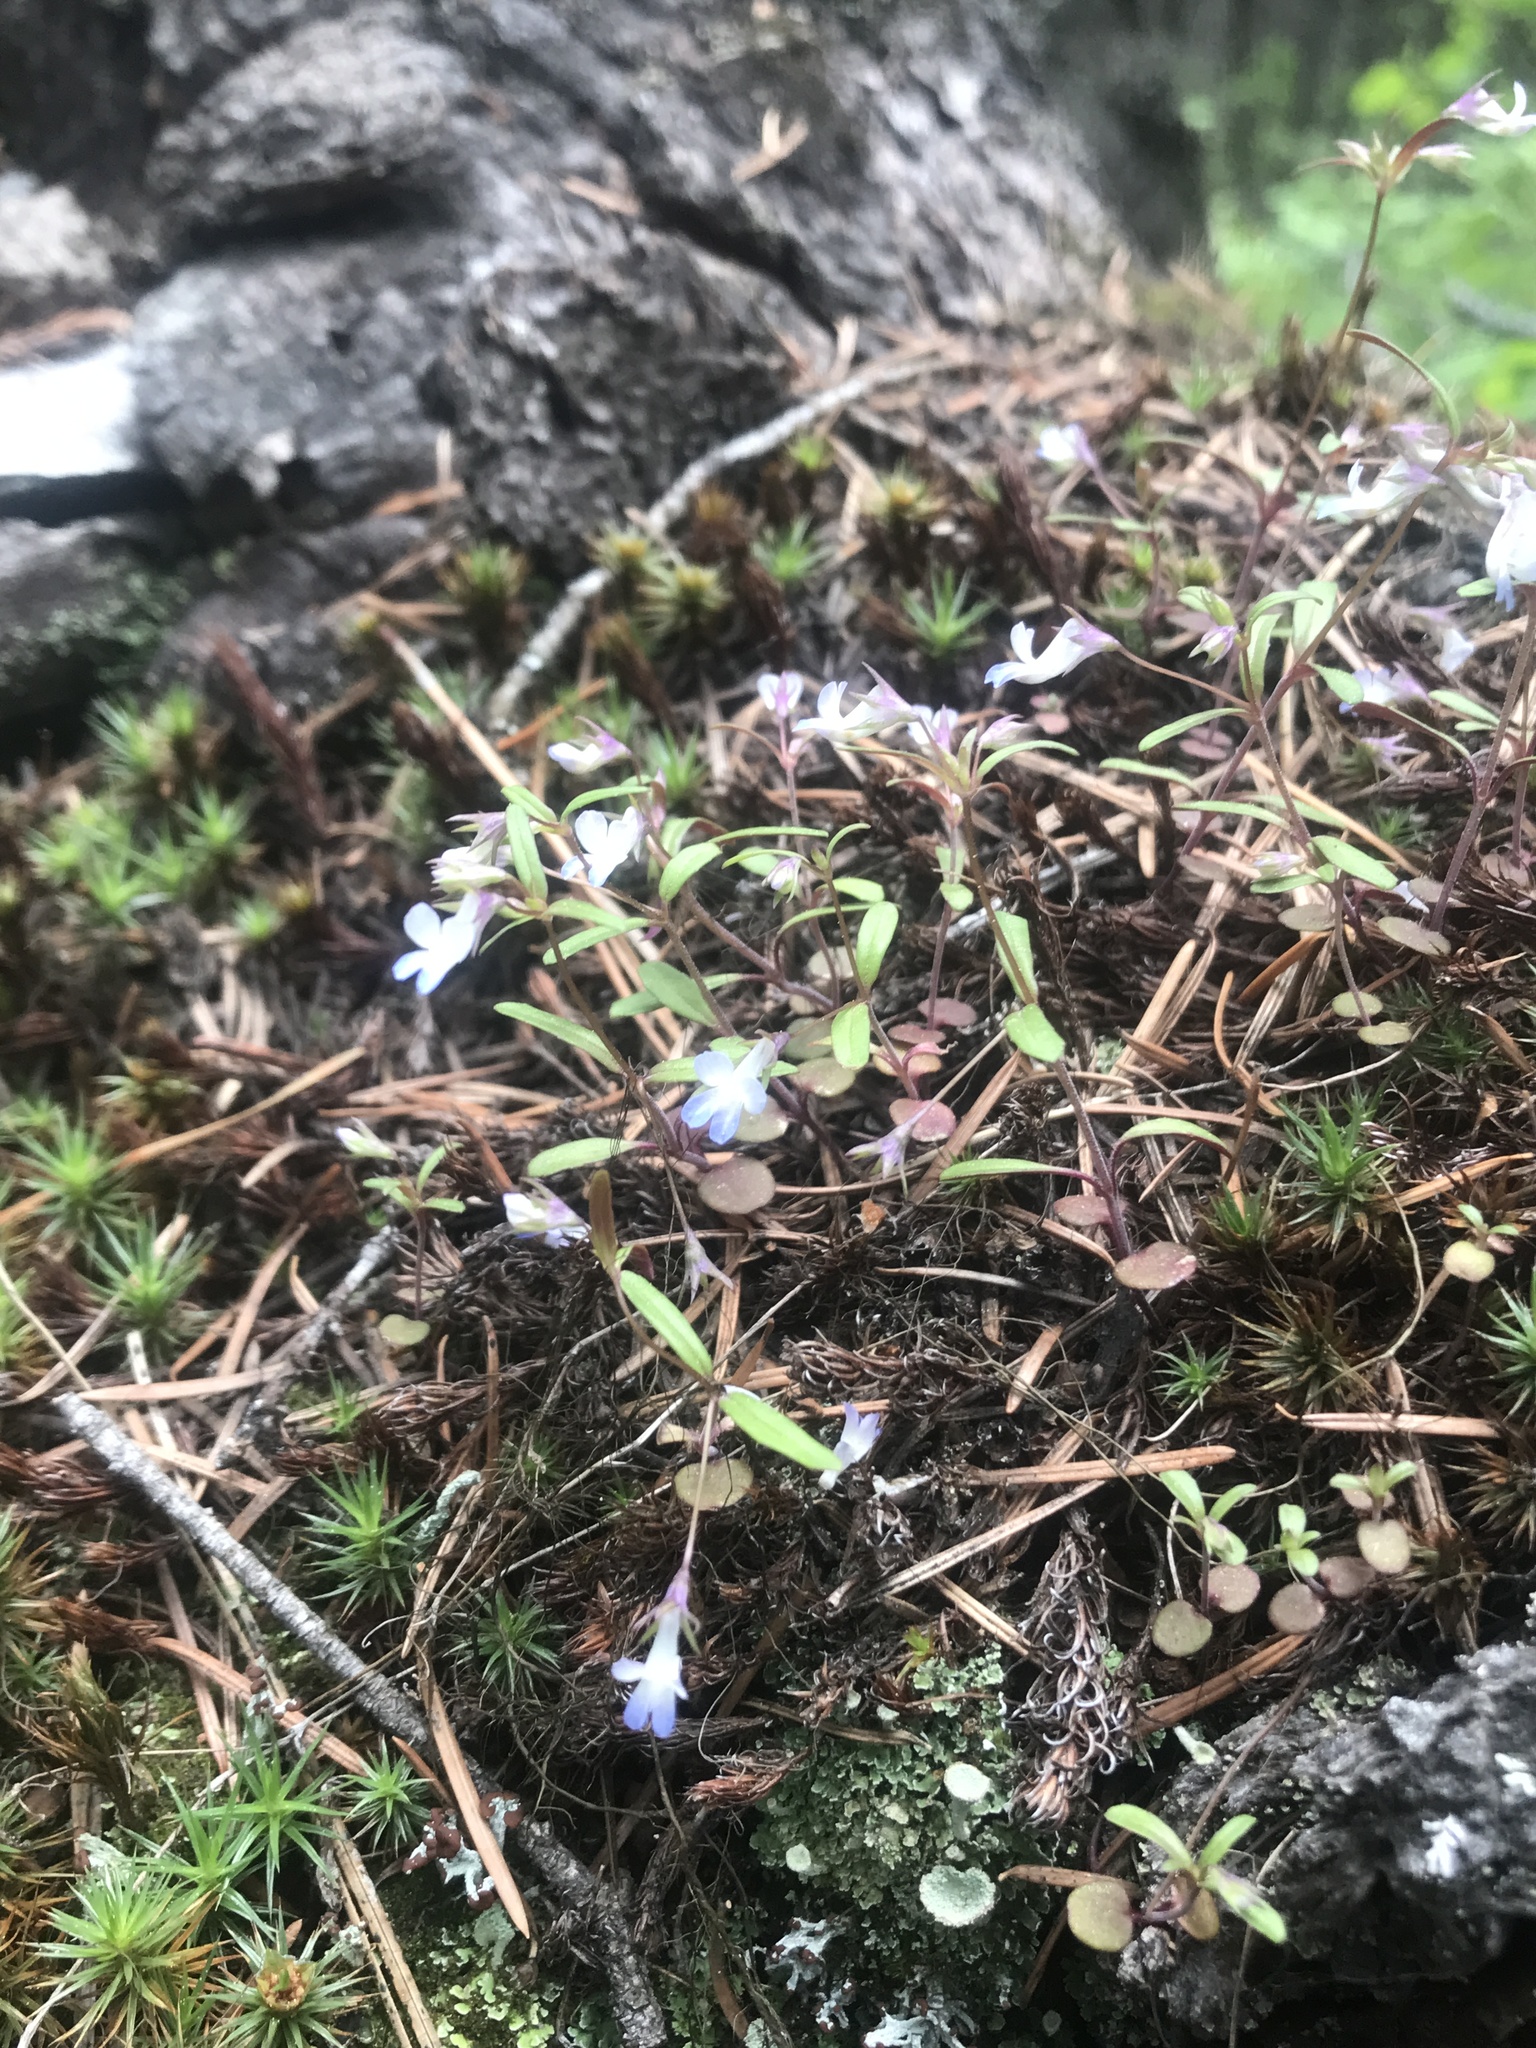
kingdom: Plantae
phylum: Tracheophyta
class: Magnoliopsida
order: Lamiales
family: Plantaginaceae
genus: Collinsia
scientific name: Collinsia parviflora
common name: Blue-lips
